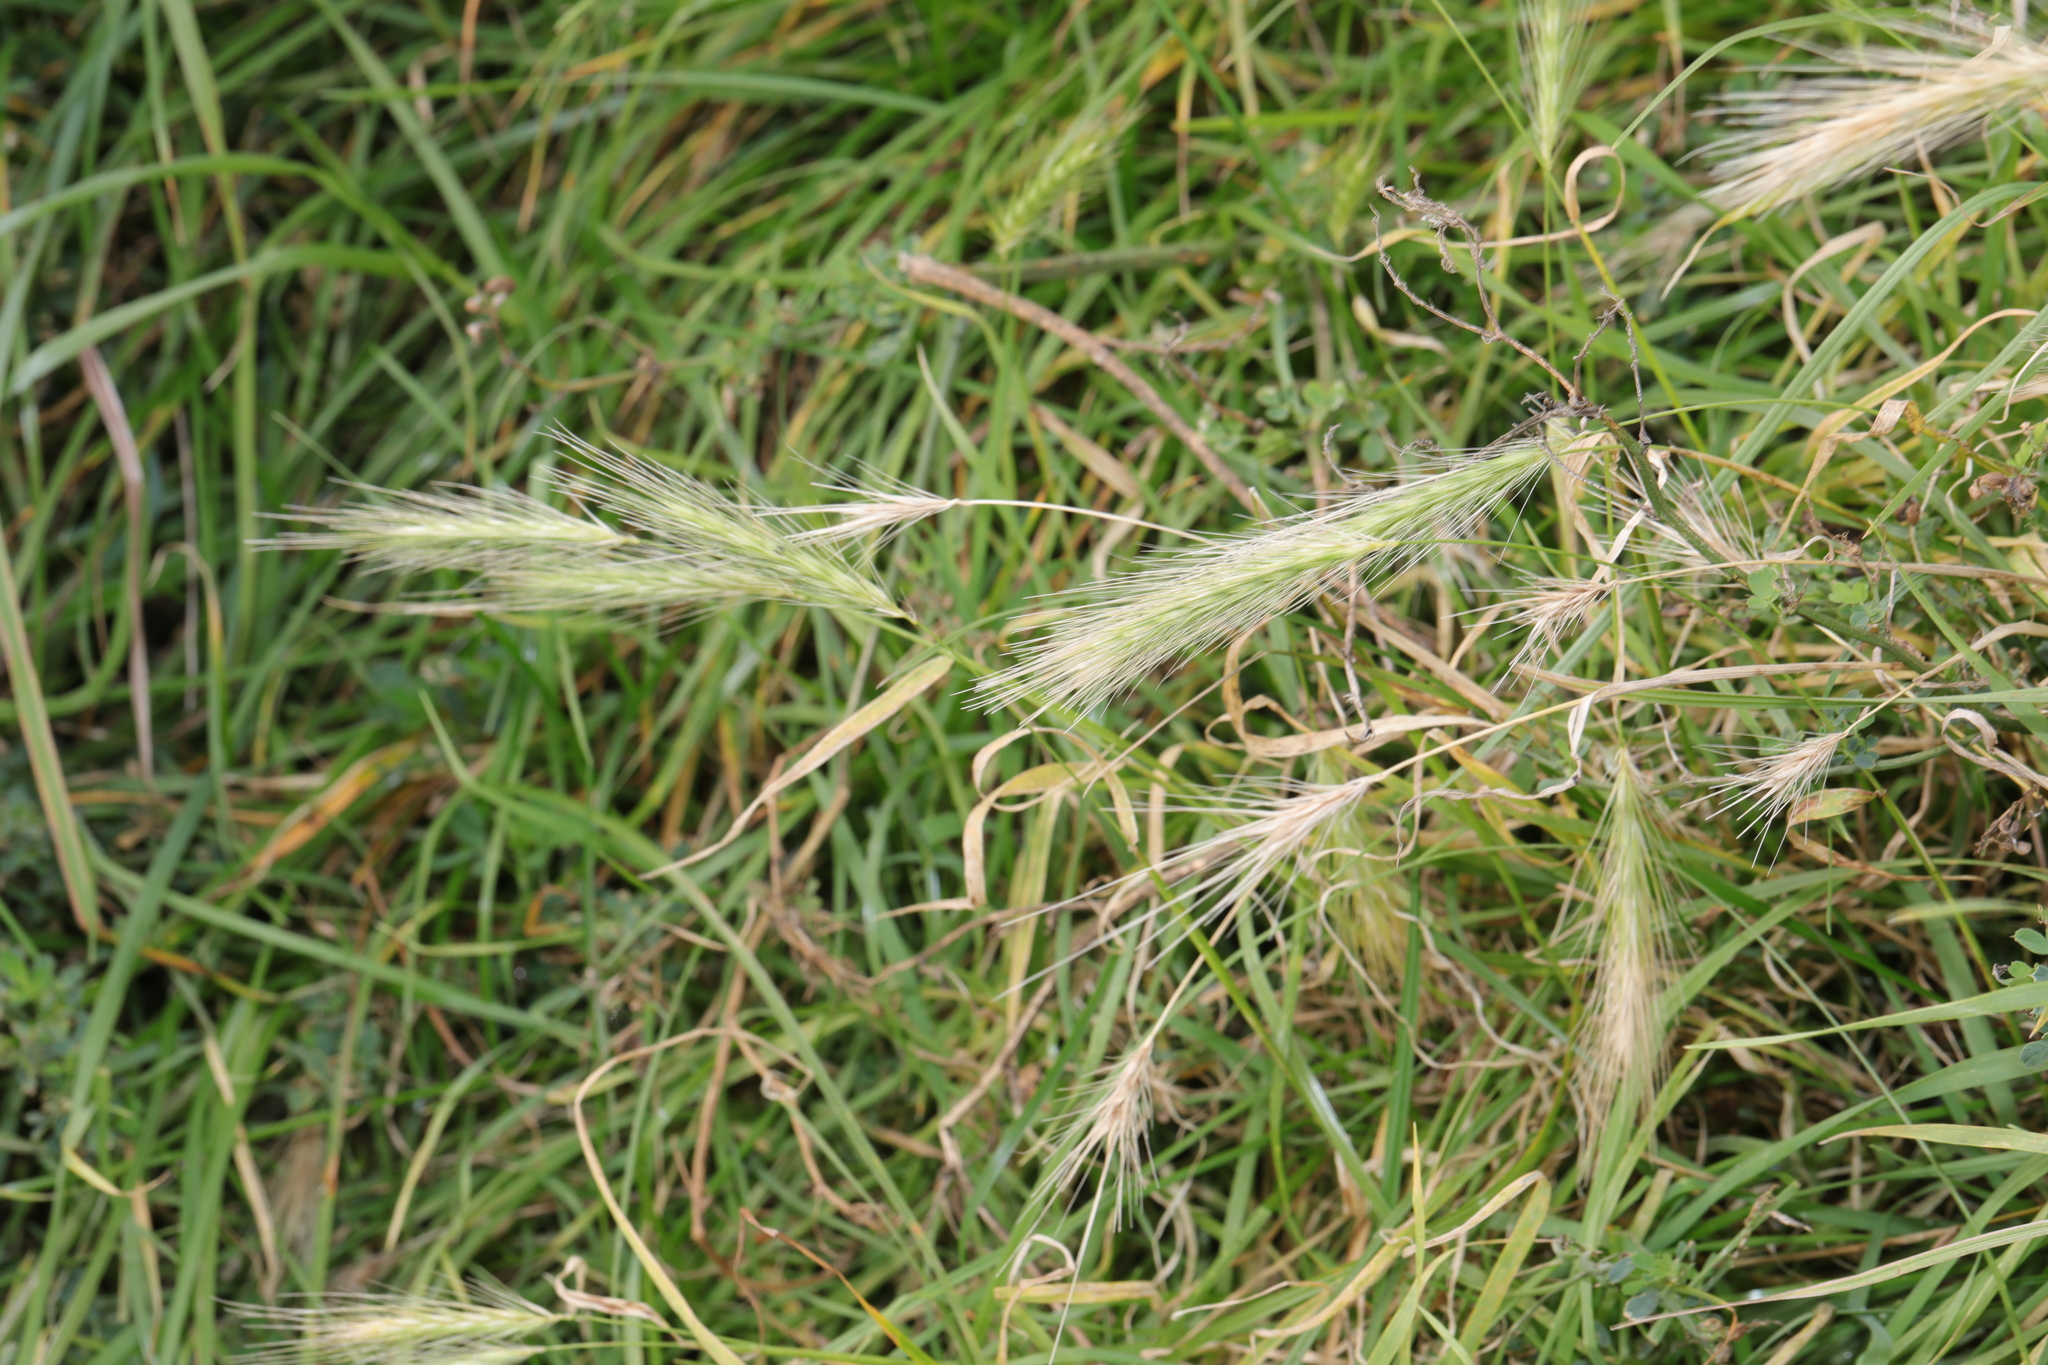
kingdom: Plantae
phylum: Tracheophyta
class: Liliopsida
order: Poales
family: Poaceae
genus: Hordeum
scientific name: Hordeum murinum
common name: Wall barley
